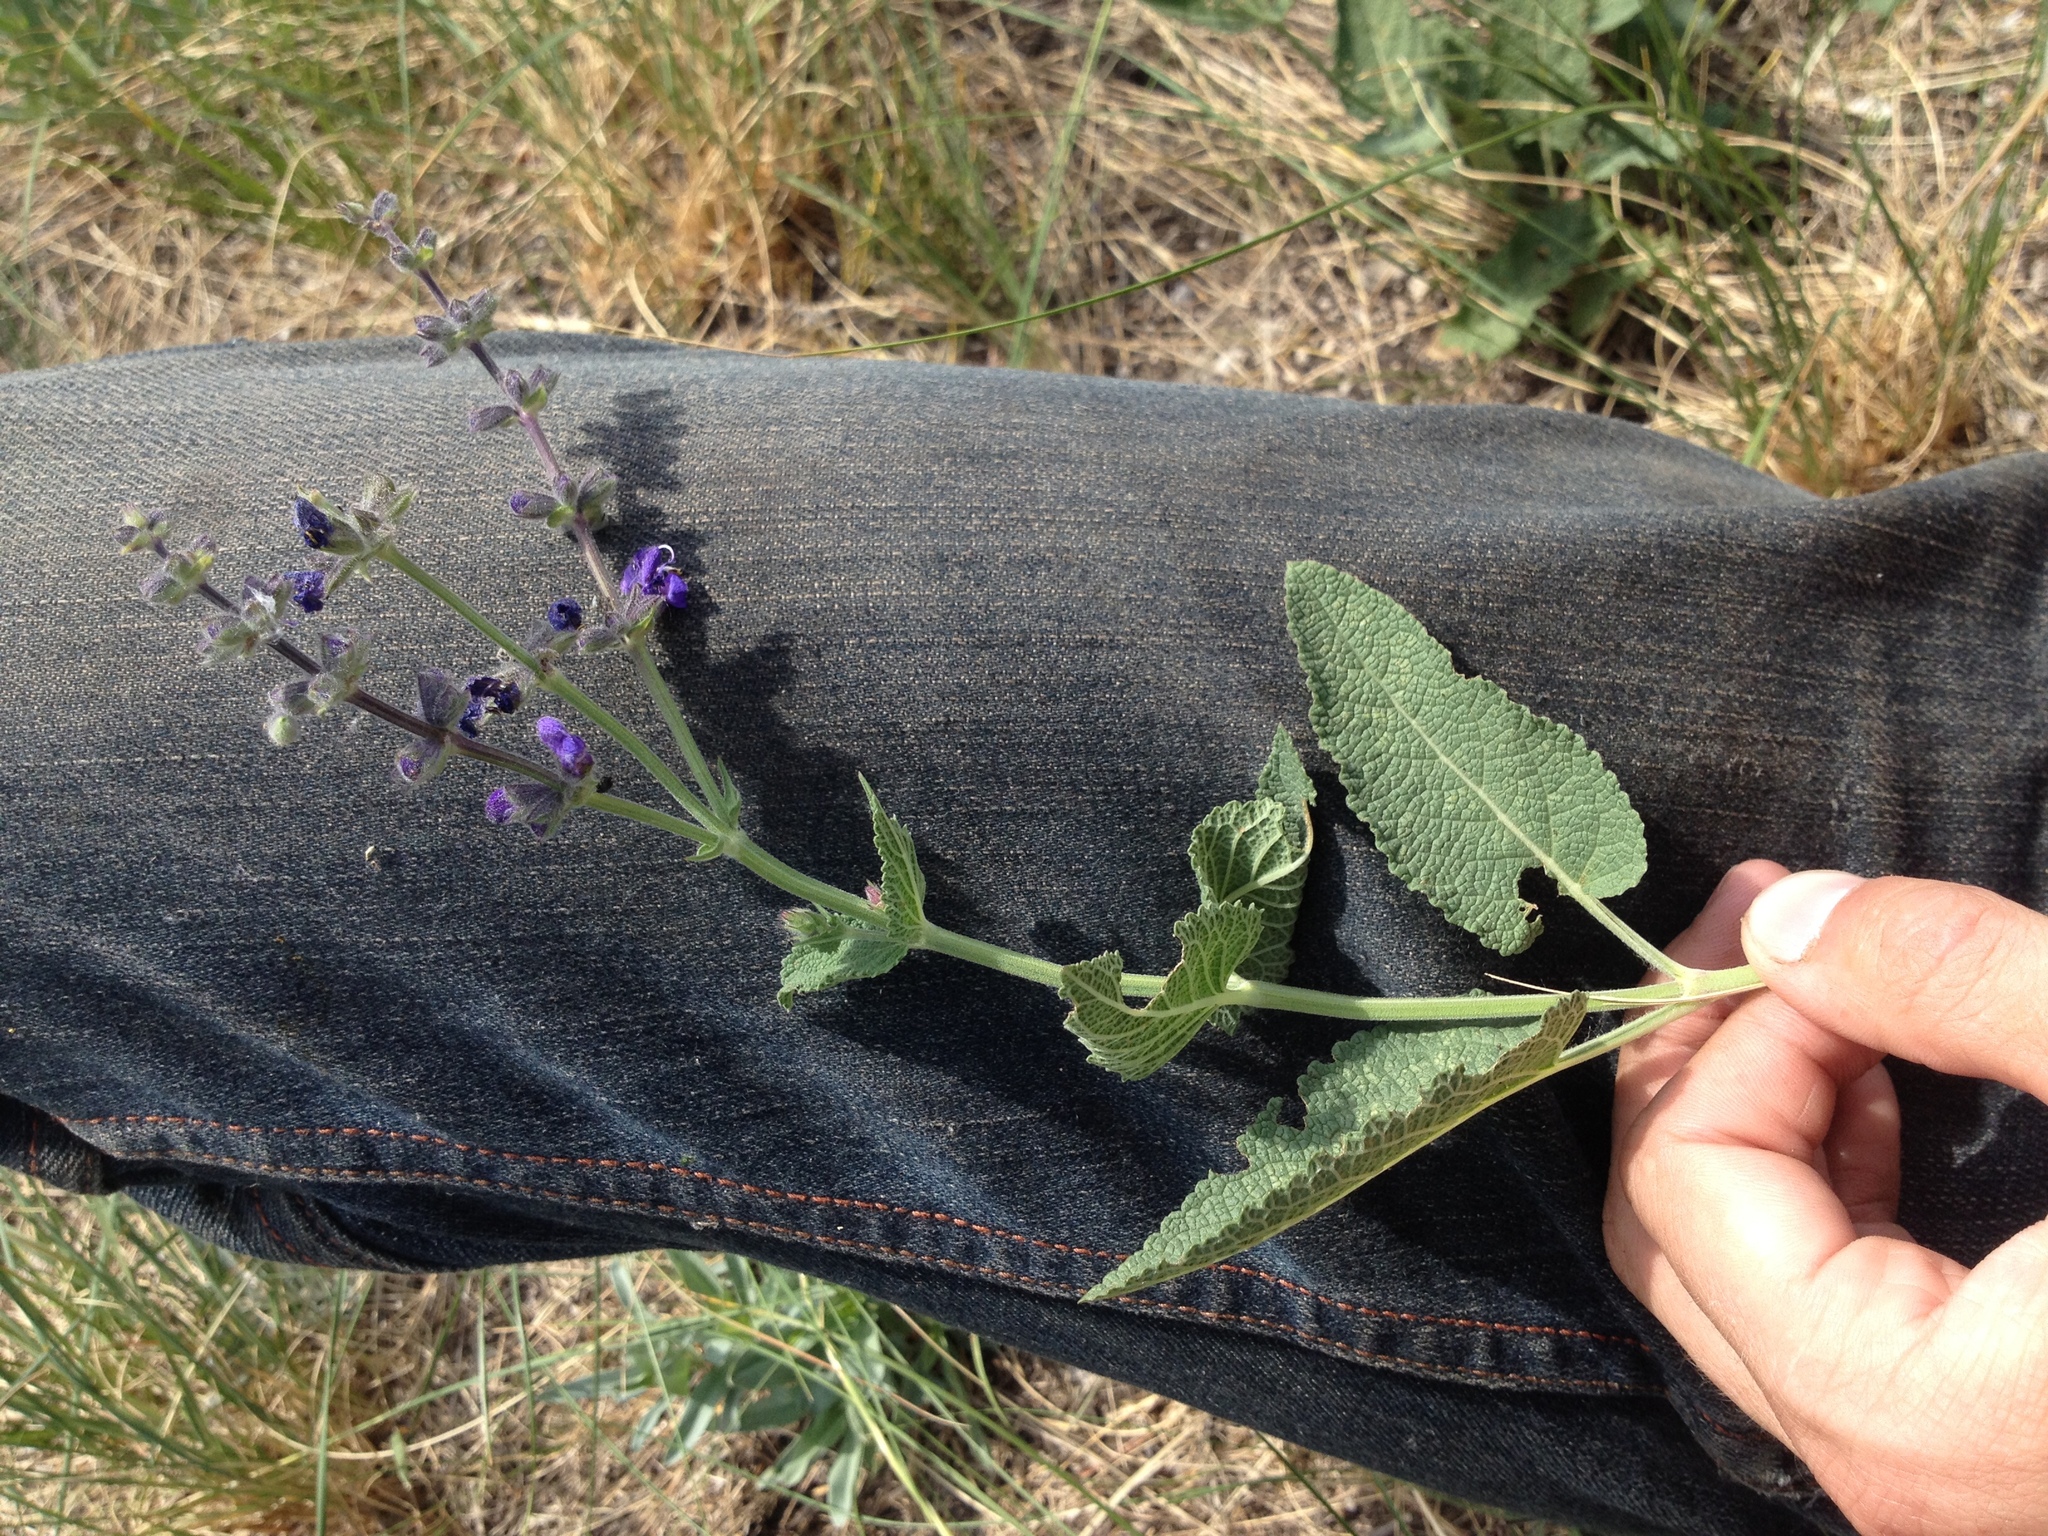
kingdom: Plantae
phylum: Tracheophyta
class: Magnoliopsida
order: Lamiales
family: Lamiaceae
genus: Salvia
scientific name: Salvia dumetorum
